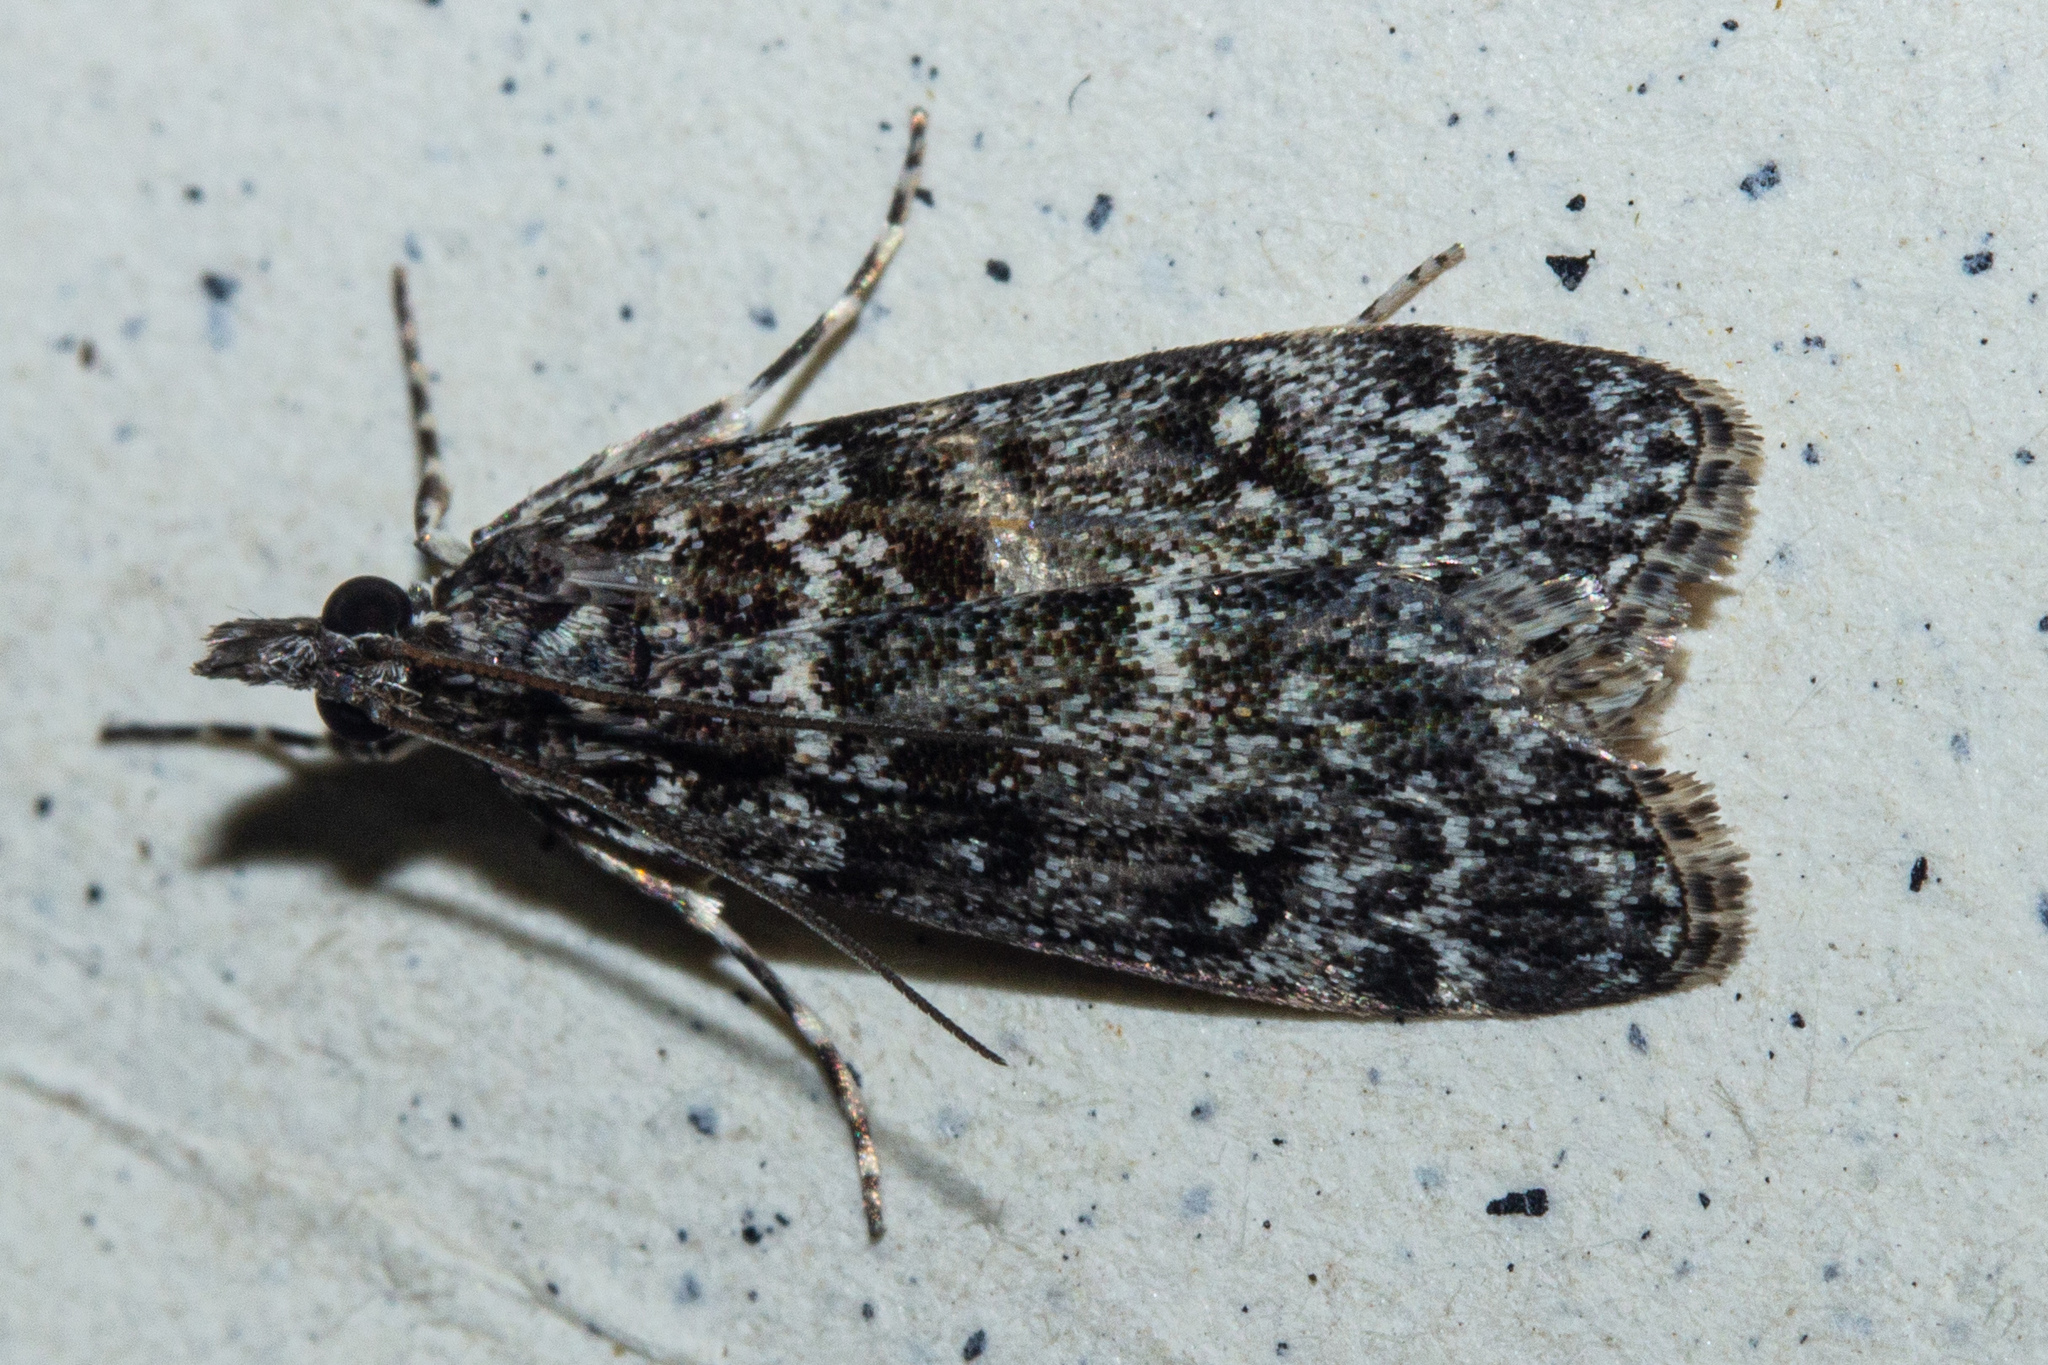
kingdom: Animalia
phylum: Arthropoda
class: Insecta
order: Lepidoptera
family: Crambidae
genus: Eudonia
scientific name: Eudonia philerga
